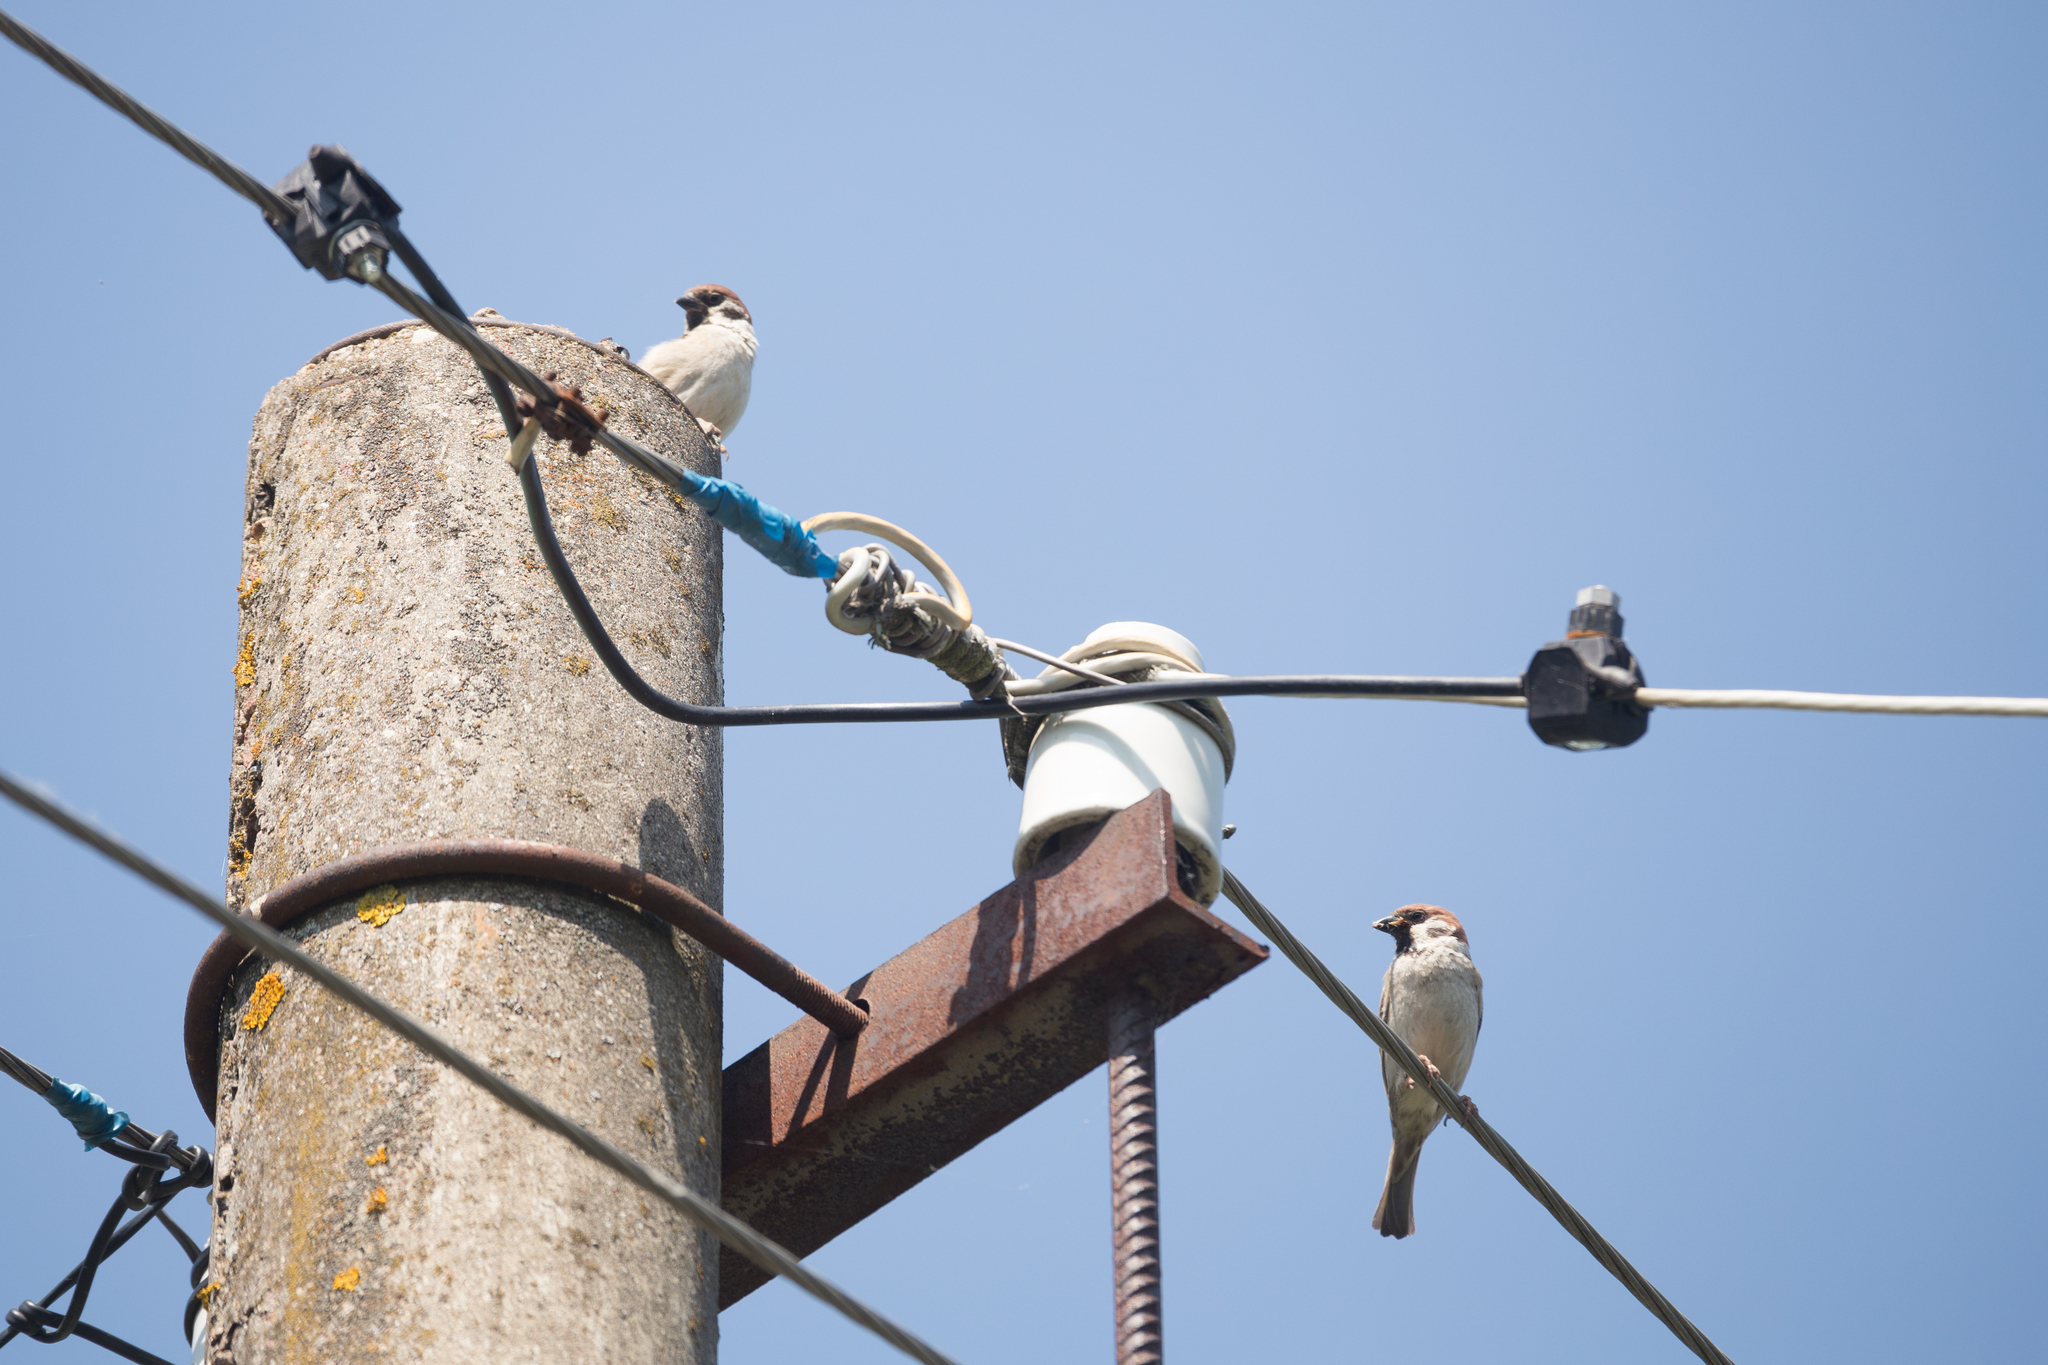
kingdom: Animalia
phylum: Chordata
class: Aves
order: Passeriformes
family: Passeridae
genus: Passer
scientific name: Passer montanus
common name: Eurasian tree sparrow
